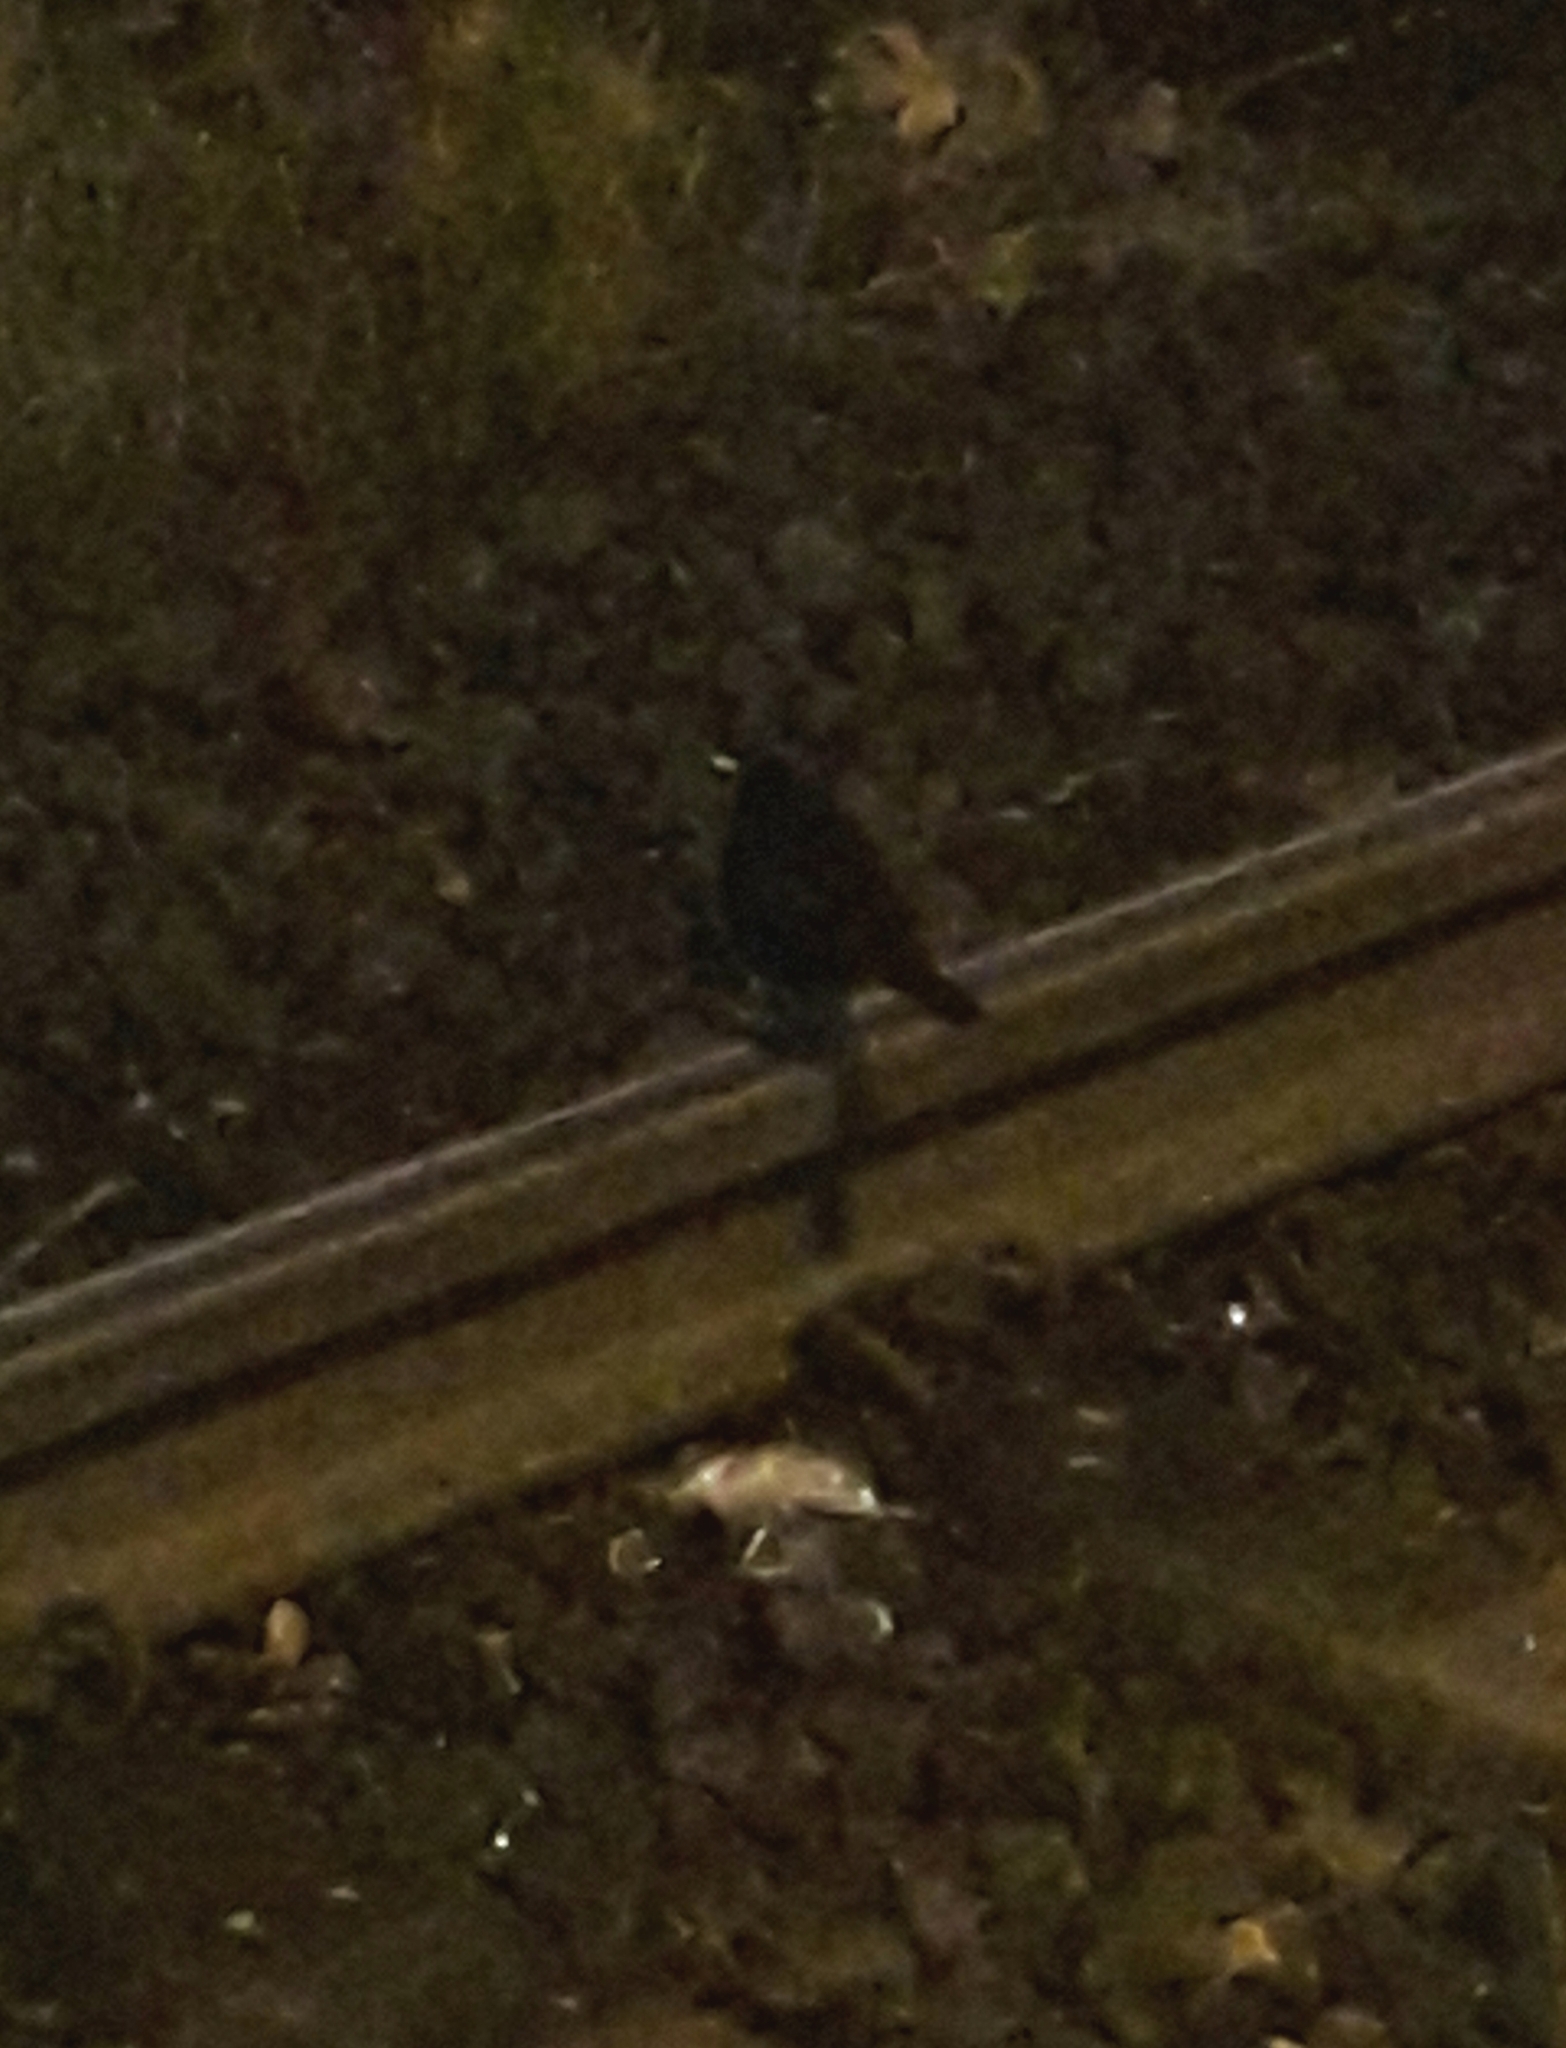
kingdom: Animalia
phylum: Chordata
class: Aves
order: Passeriformes
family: Turdidae
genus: Turdus
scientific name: Turdus merula
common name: Common blackbird
